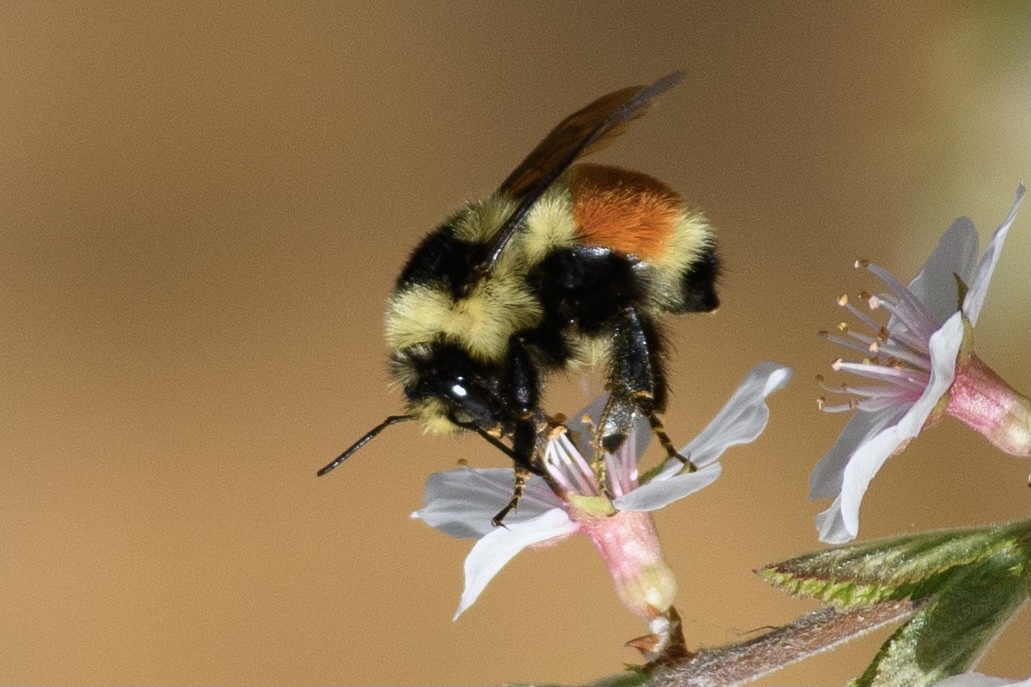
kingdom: Animalia
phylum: Arthropoda
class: Insecta
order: Hymenoptera
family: Apidae
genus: Bombus
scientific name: Bombus huntii
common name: Hunt bumble bee
